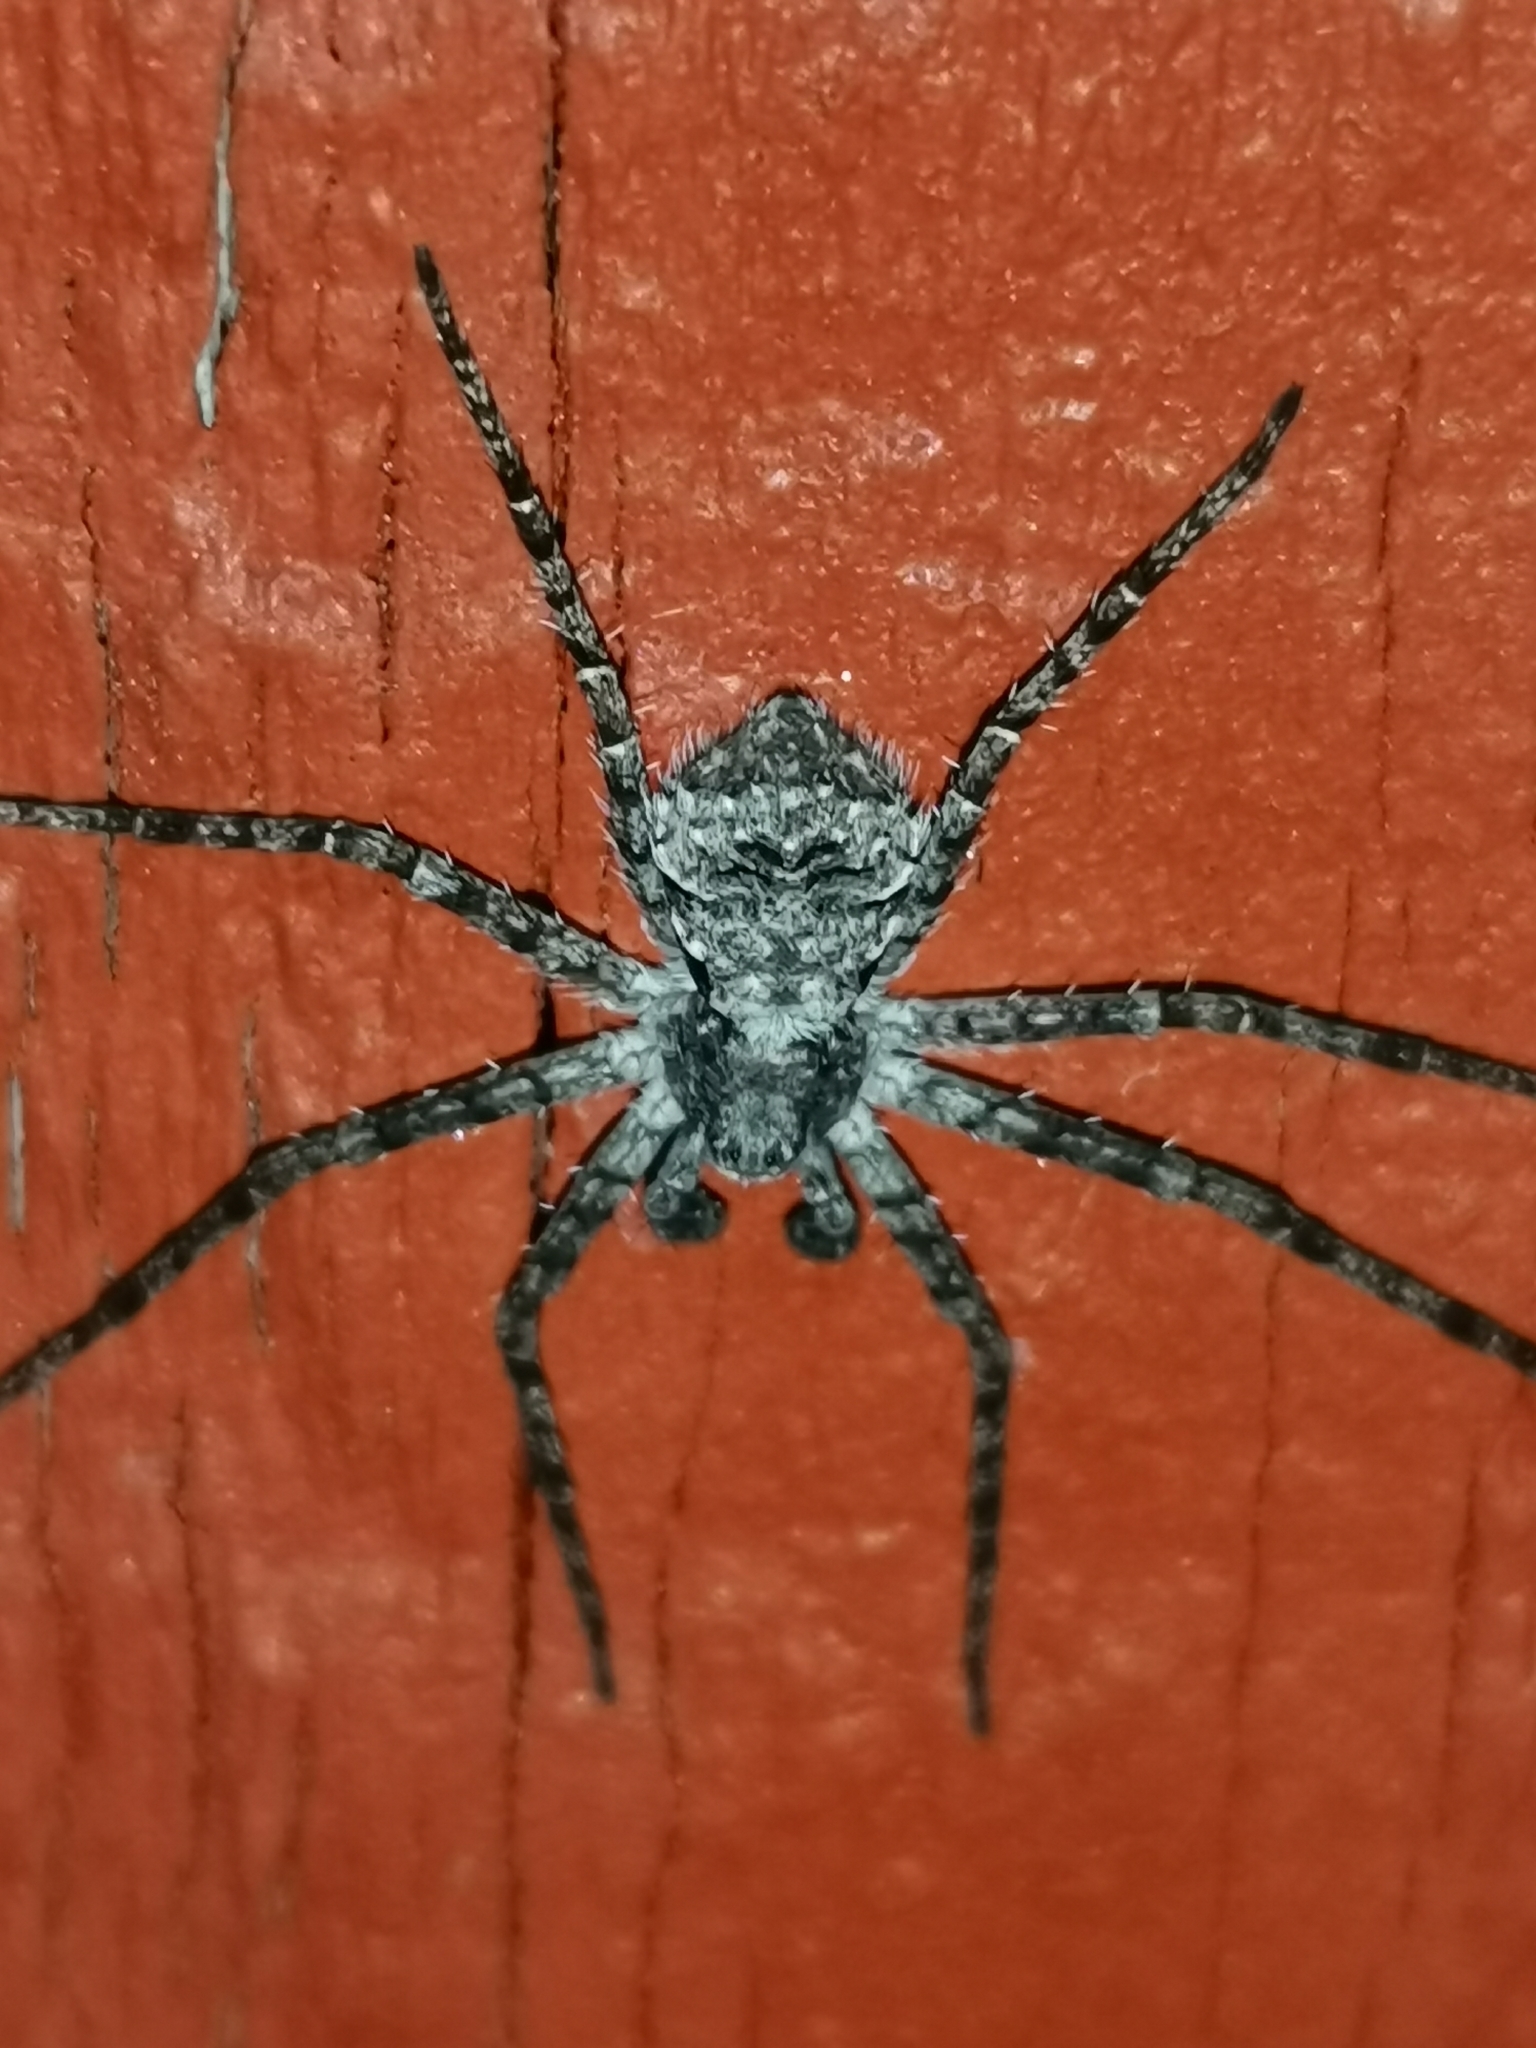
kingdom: Animalia
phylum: Arthropoda
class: Arachnida
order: Araneae
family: Philodromidae
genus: Philodromus
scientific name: Philodromus margaritatus
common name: Lichen running-spider
